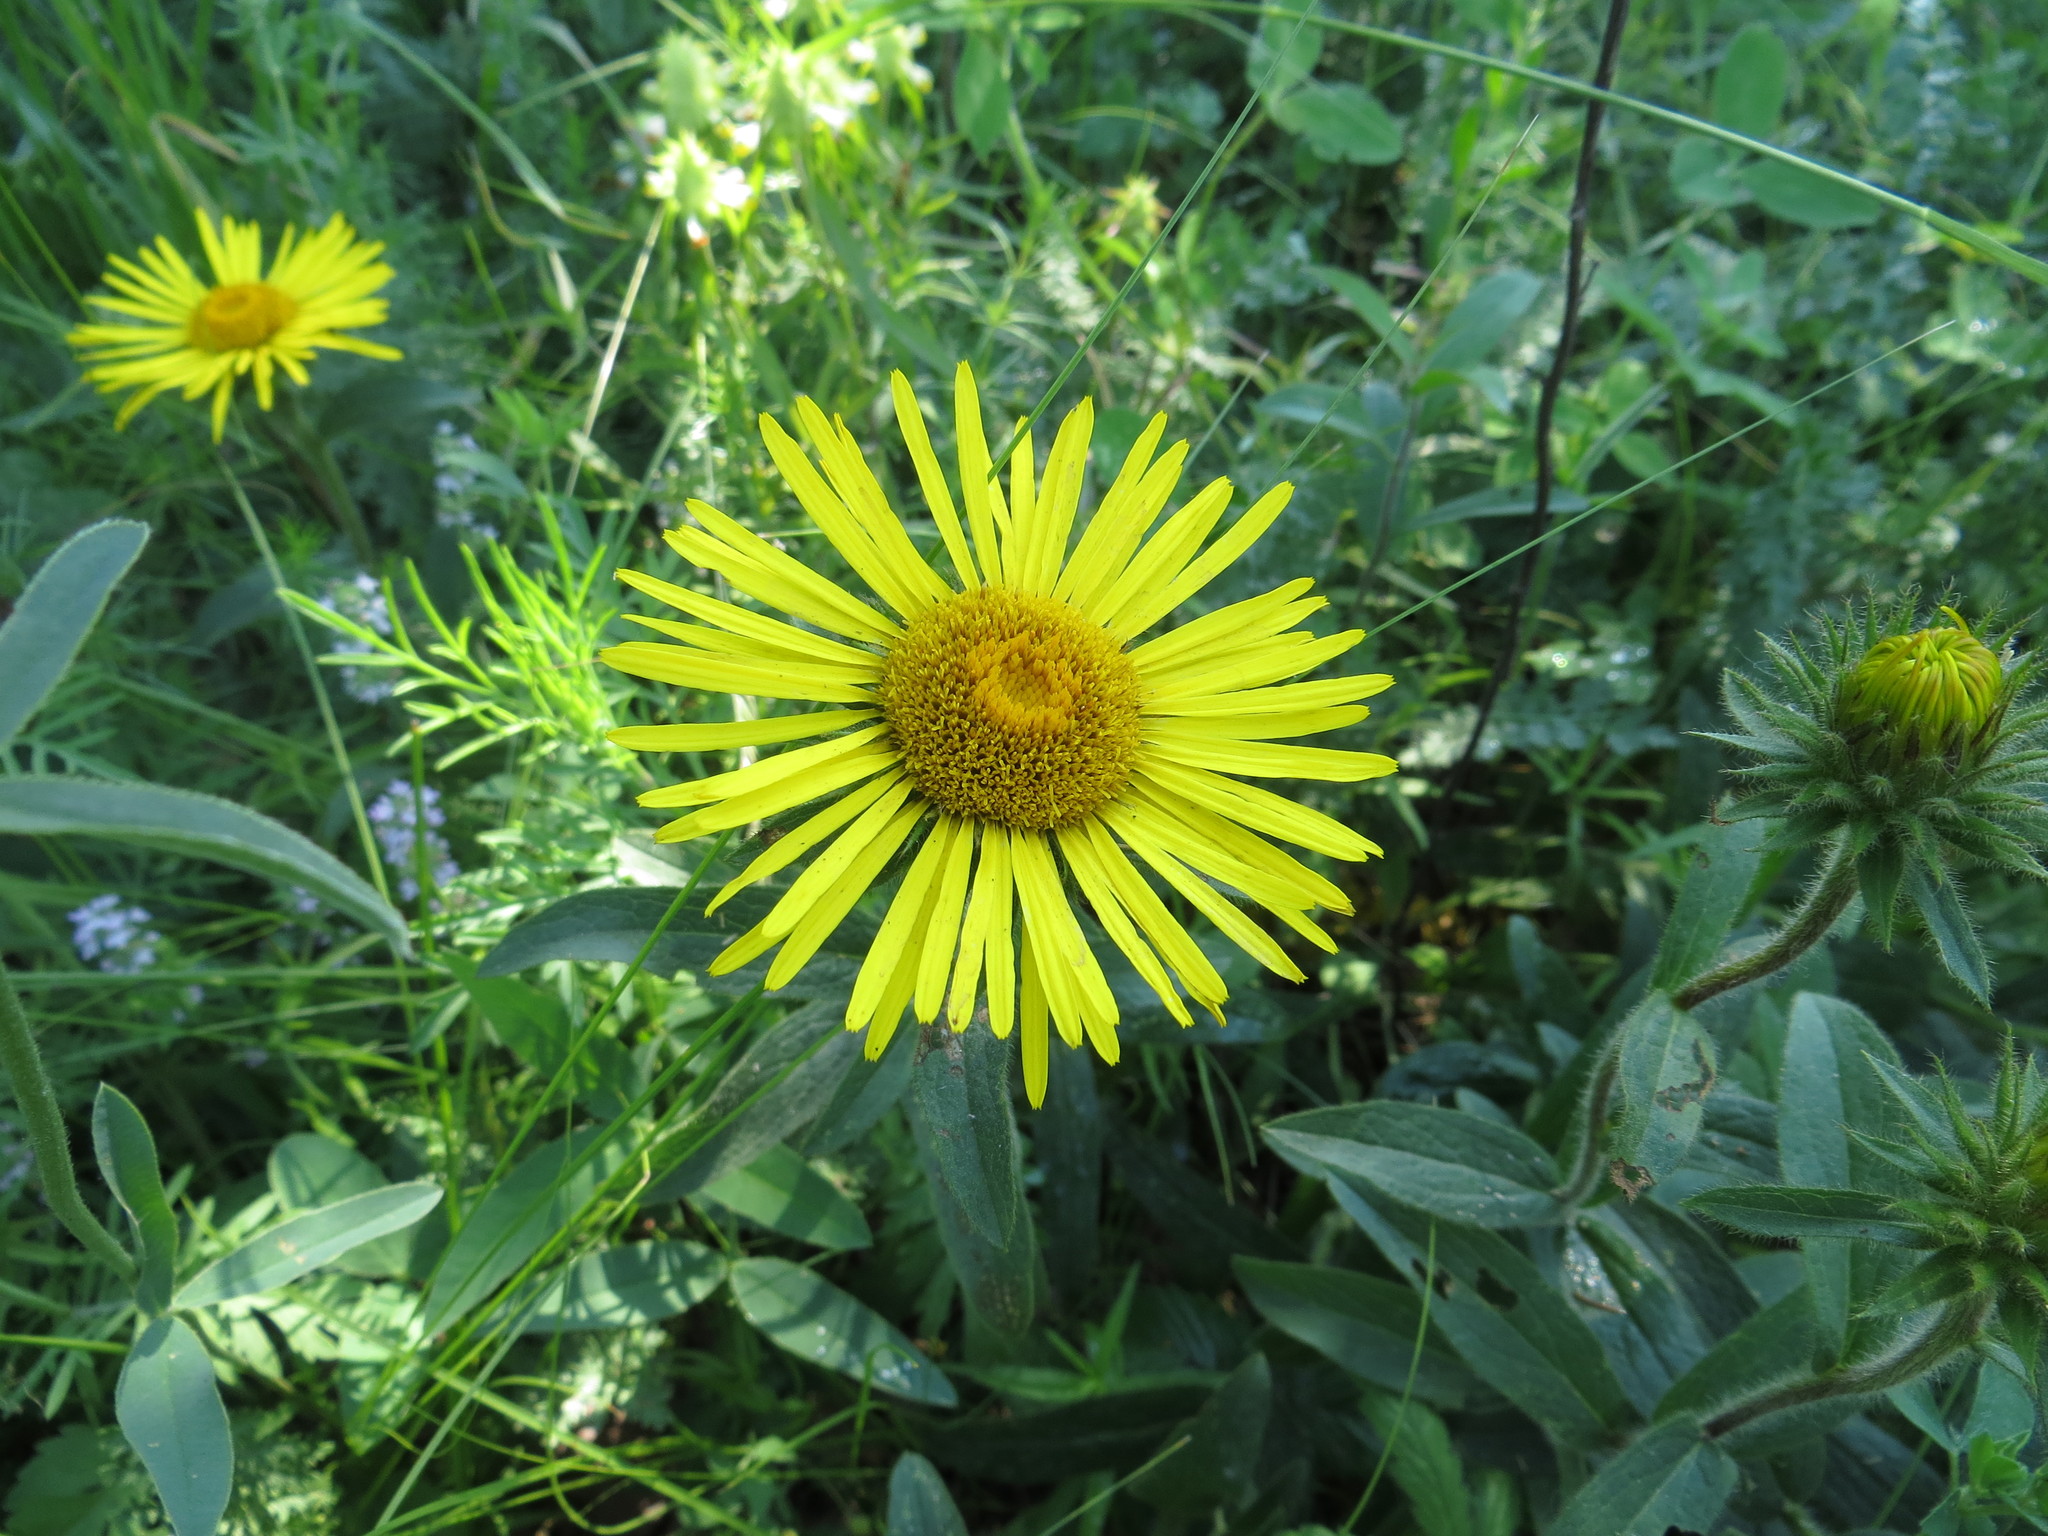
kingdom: Plantae
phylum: Tracheophyta
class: Magnoliopsida
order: Asterales
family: Asteraceae
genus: Pentanema
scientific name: Pentanema hirtum
